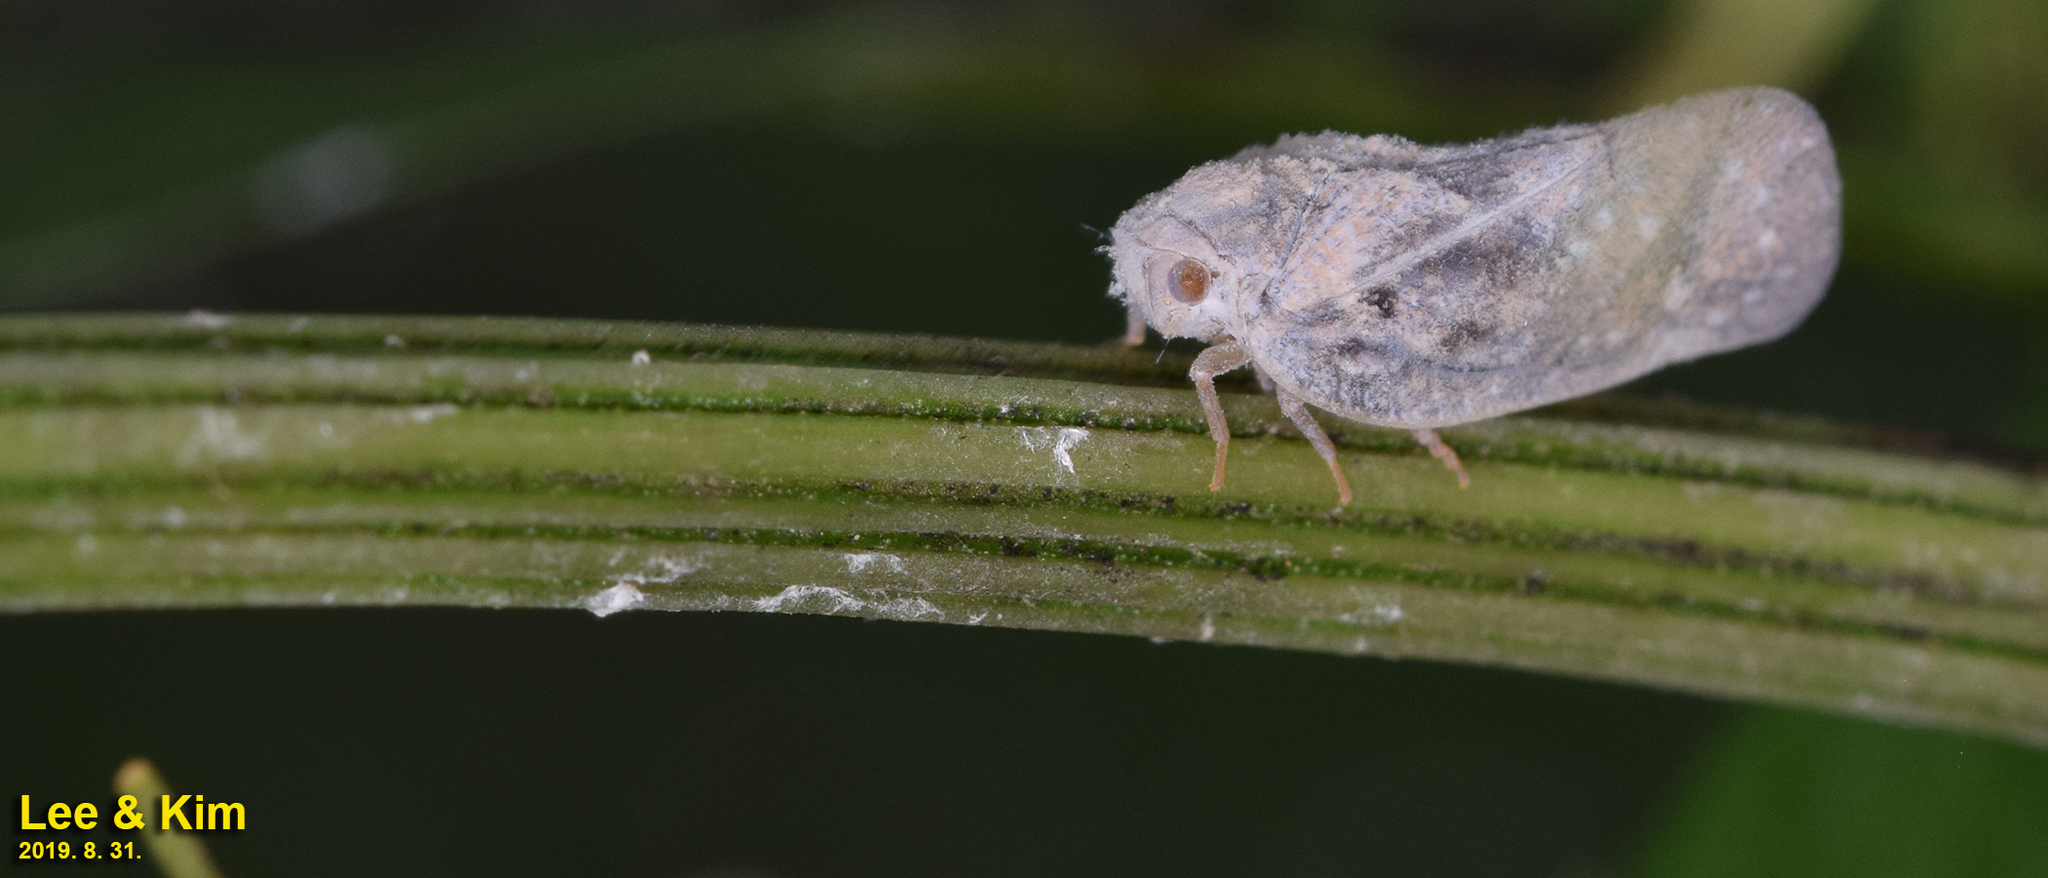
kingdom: Animalia
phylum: Arthropoda
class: Insecta
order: Hemiptera
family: Flatidae
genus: Metcalfa
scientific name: Metcalfa pruinosa
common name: Citrus flatid planthopper
